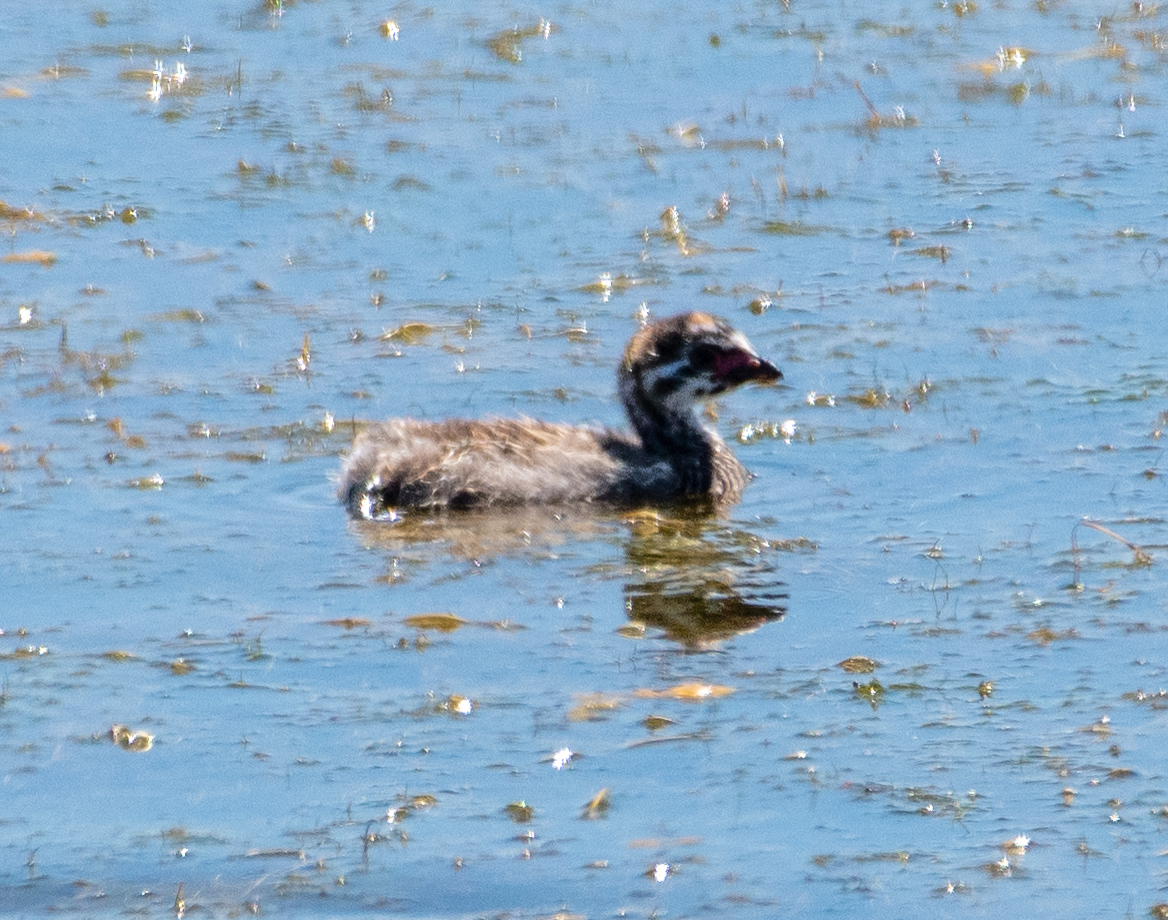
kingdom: Animalia
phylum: Chordata
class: Aves
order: Podicipediformes
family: Podicipedidae
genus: Podilymbus
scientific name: Podilymbus podiceps
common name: Pied-billed grebe
